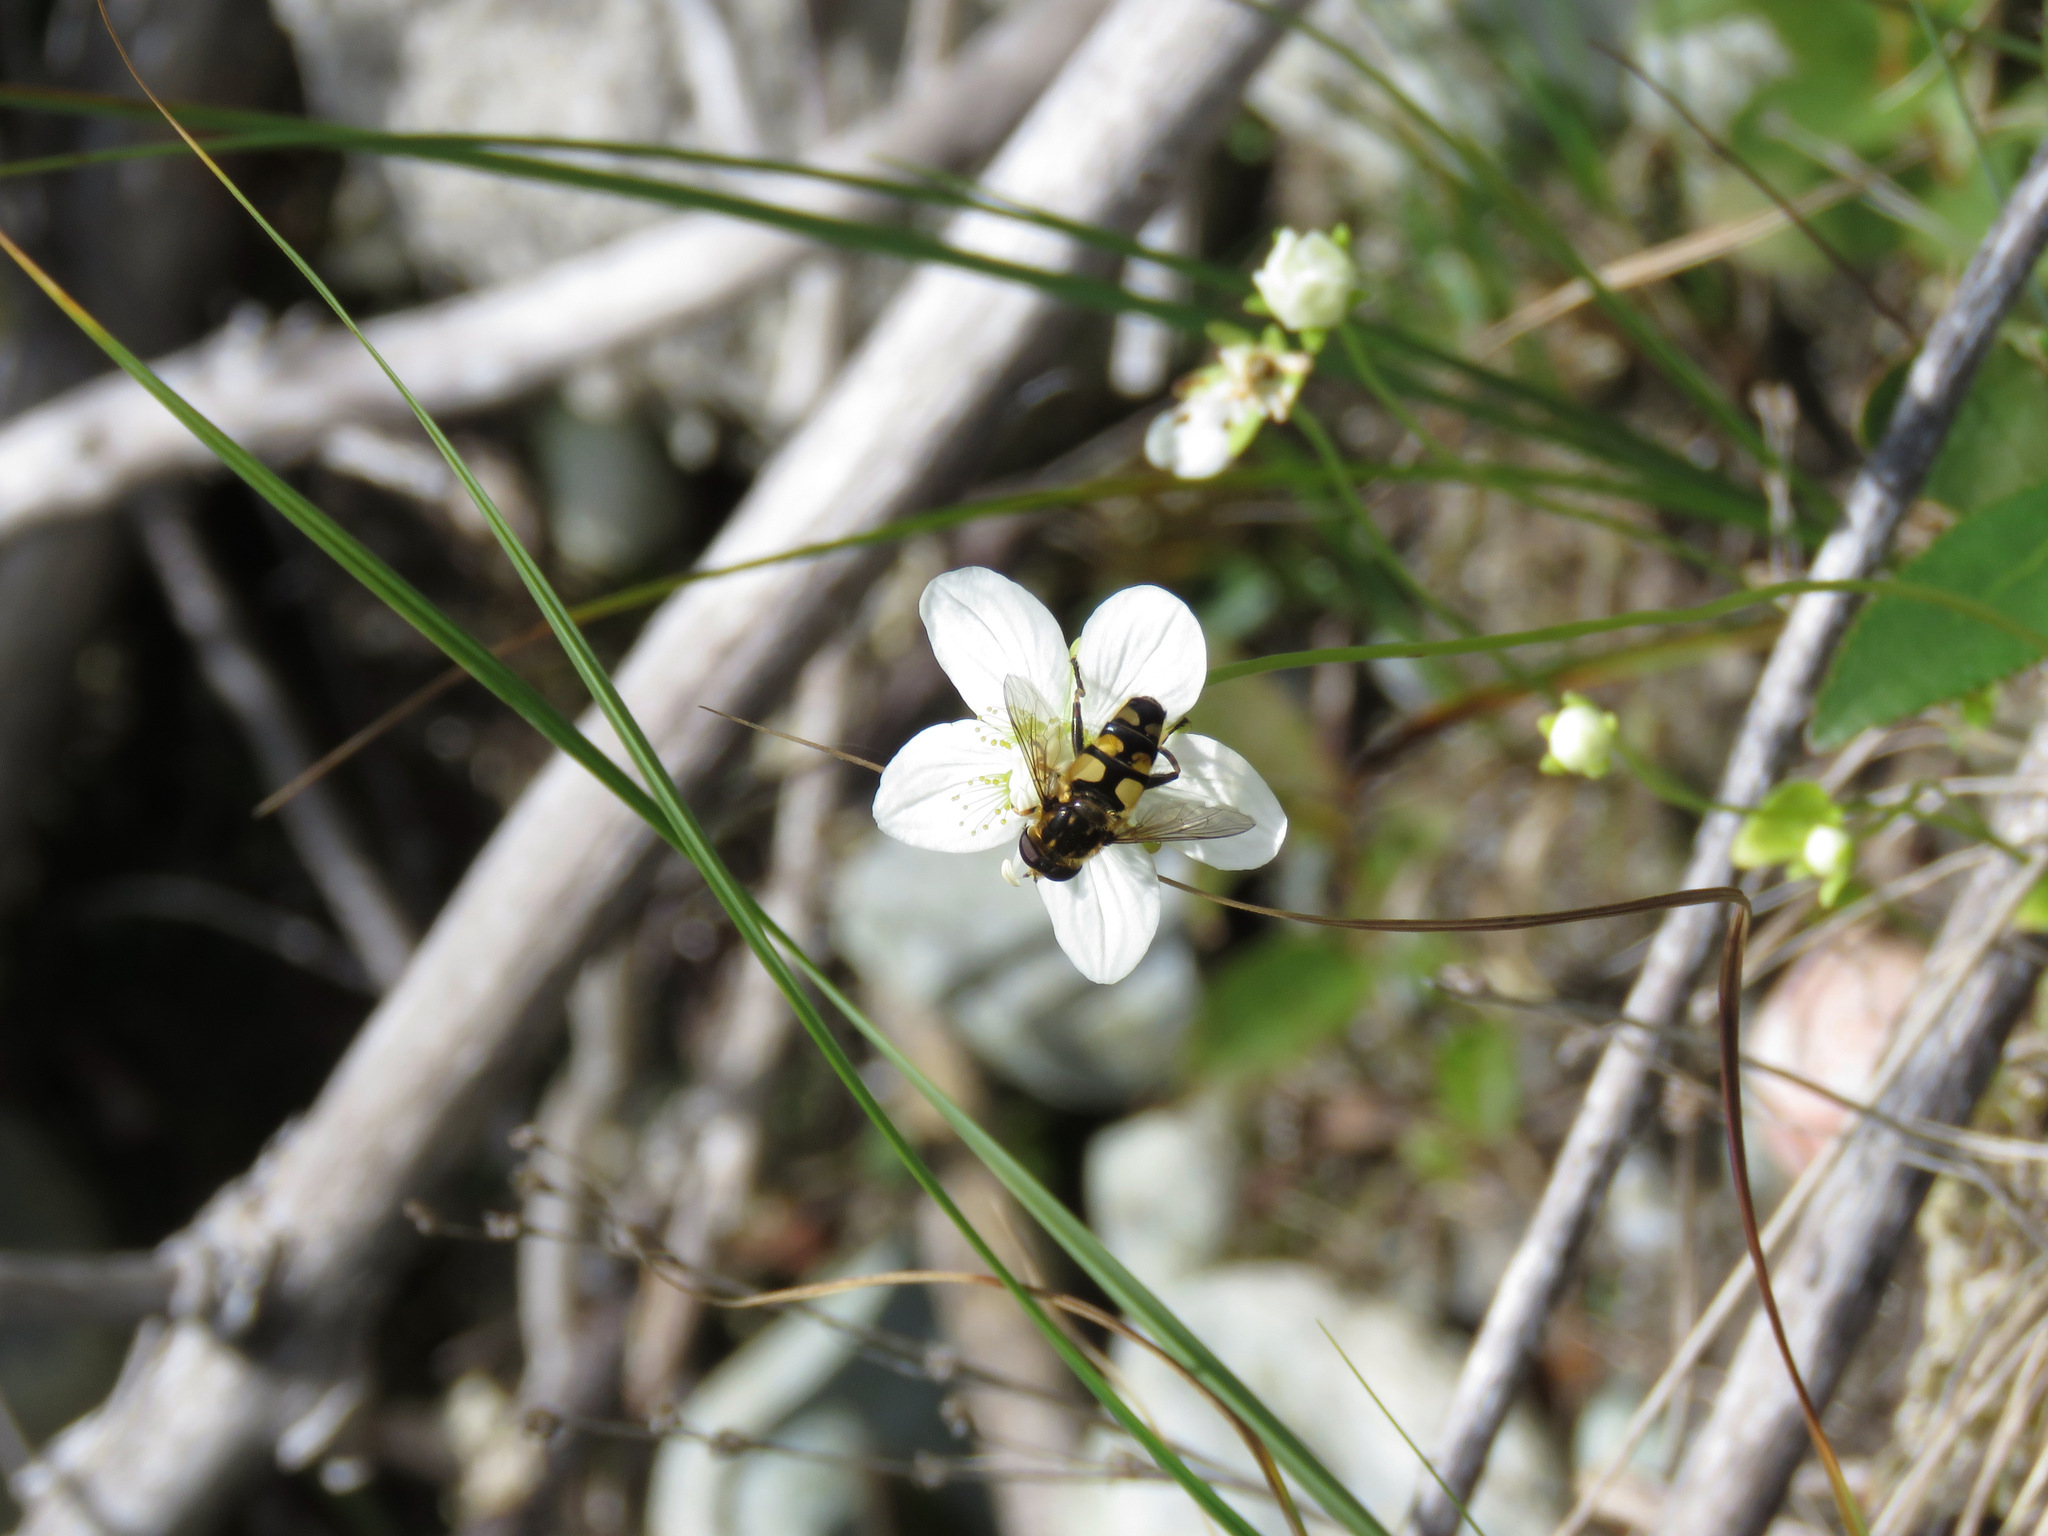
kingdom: Animalia
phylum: Arthropoda
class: Insecta
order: Diptera
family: Syrphidae
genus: Helophilus
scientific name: Helophilus obscurus
